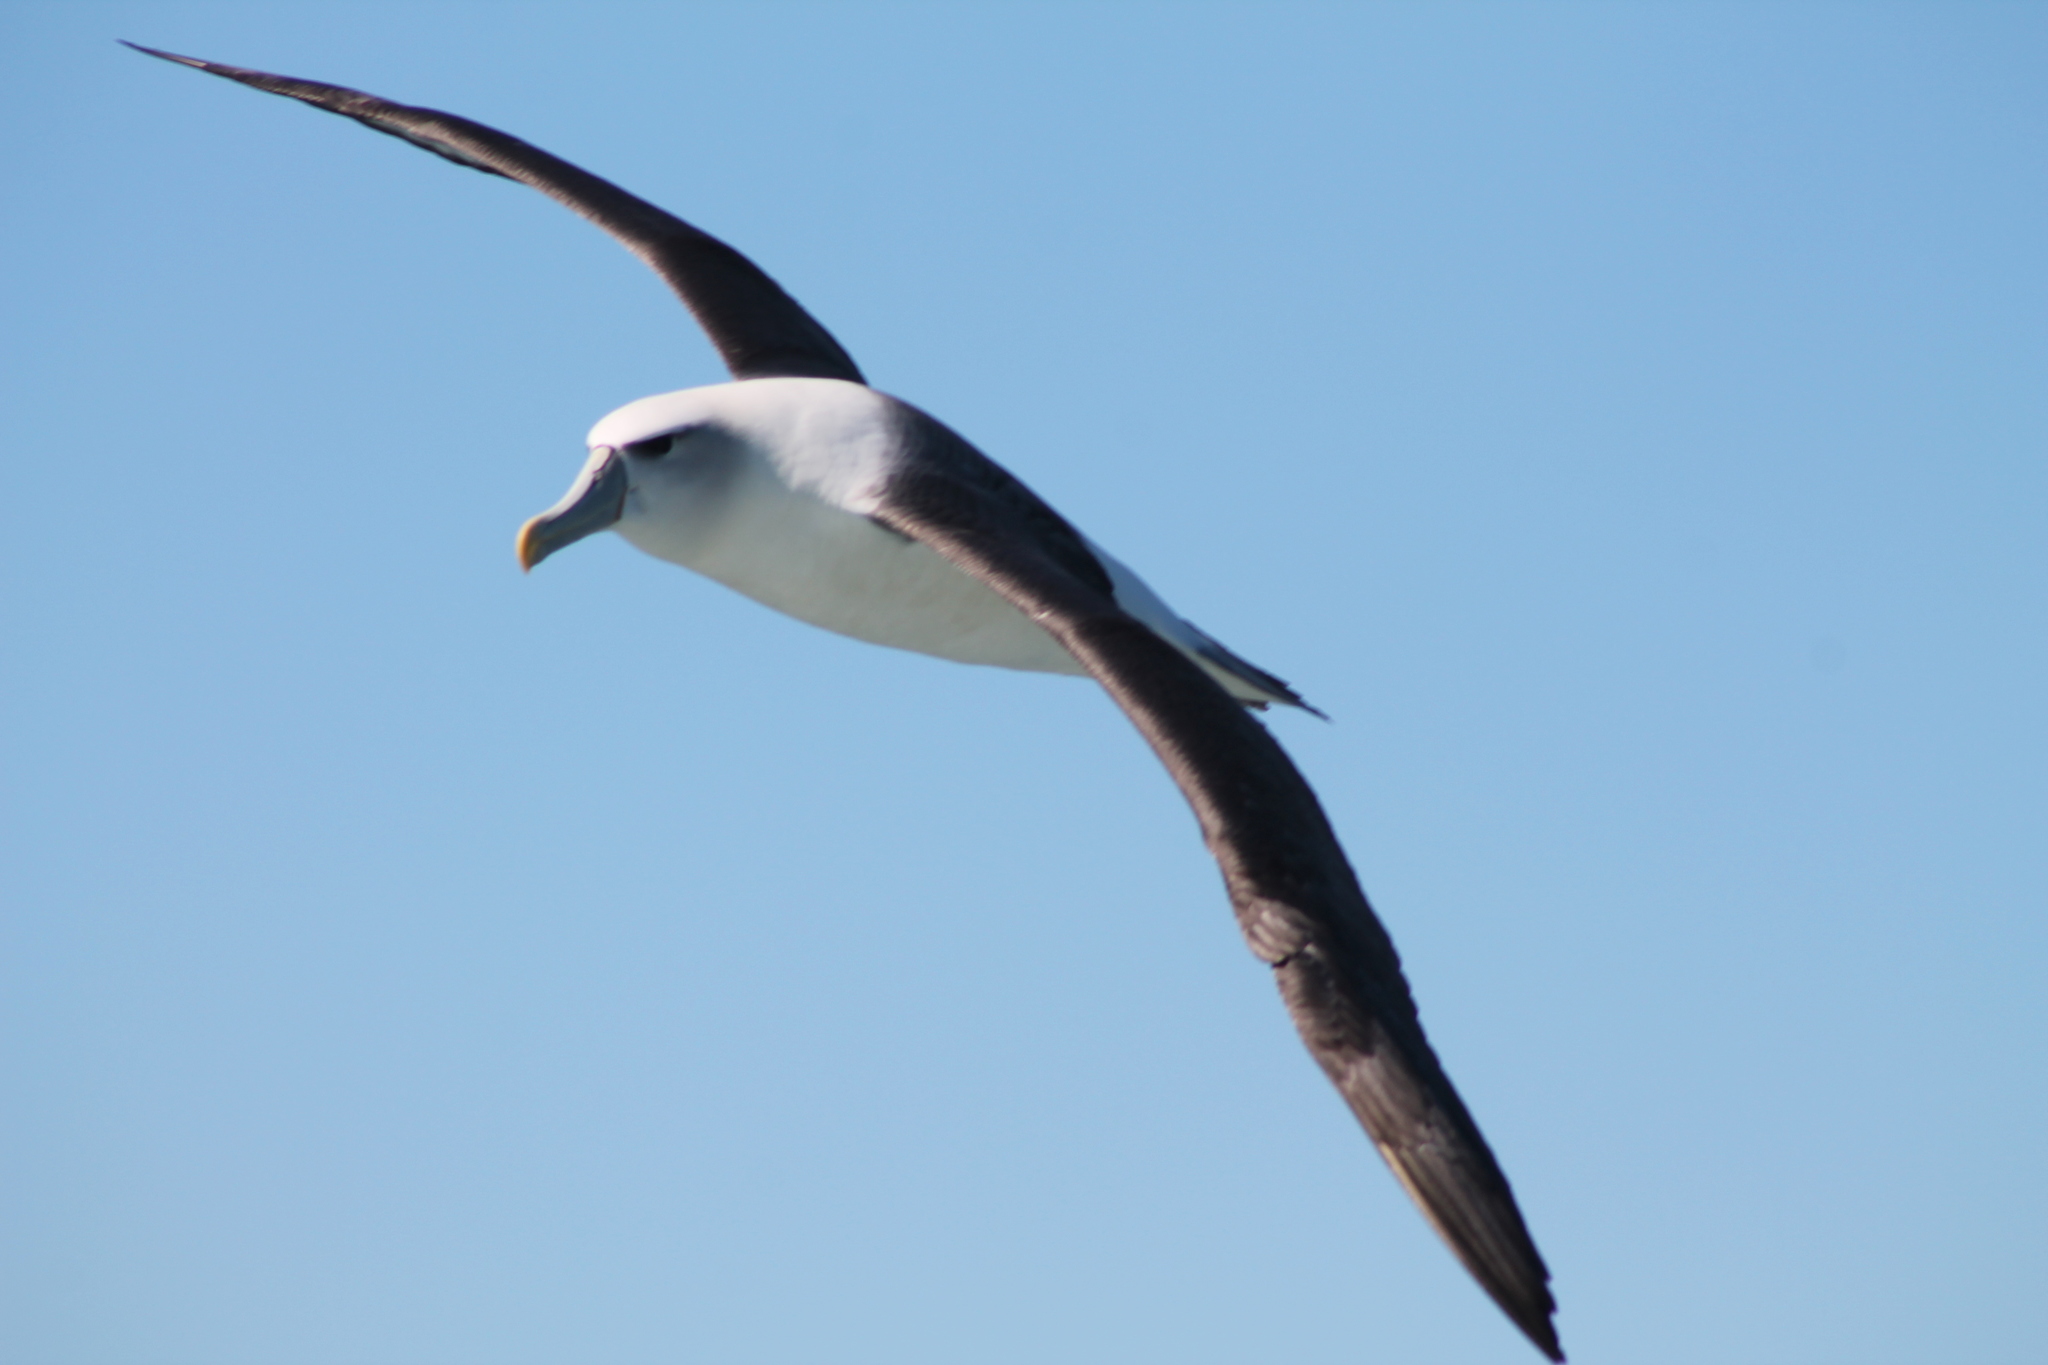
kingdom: Animalia
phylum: Chordata
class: Aves
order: Procellariiformes
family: Diomedeidae
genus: Thalassarche
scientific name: Thalassarche cauta
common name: Shy albatross
